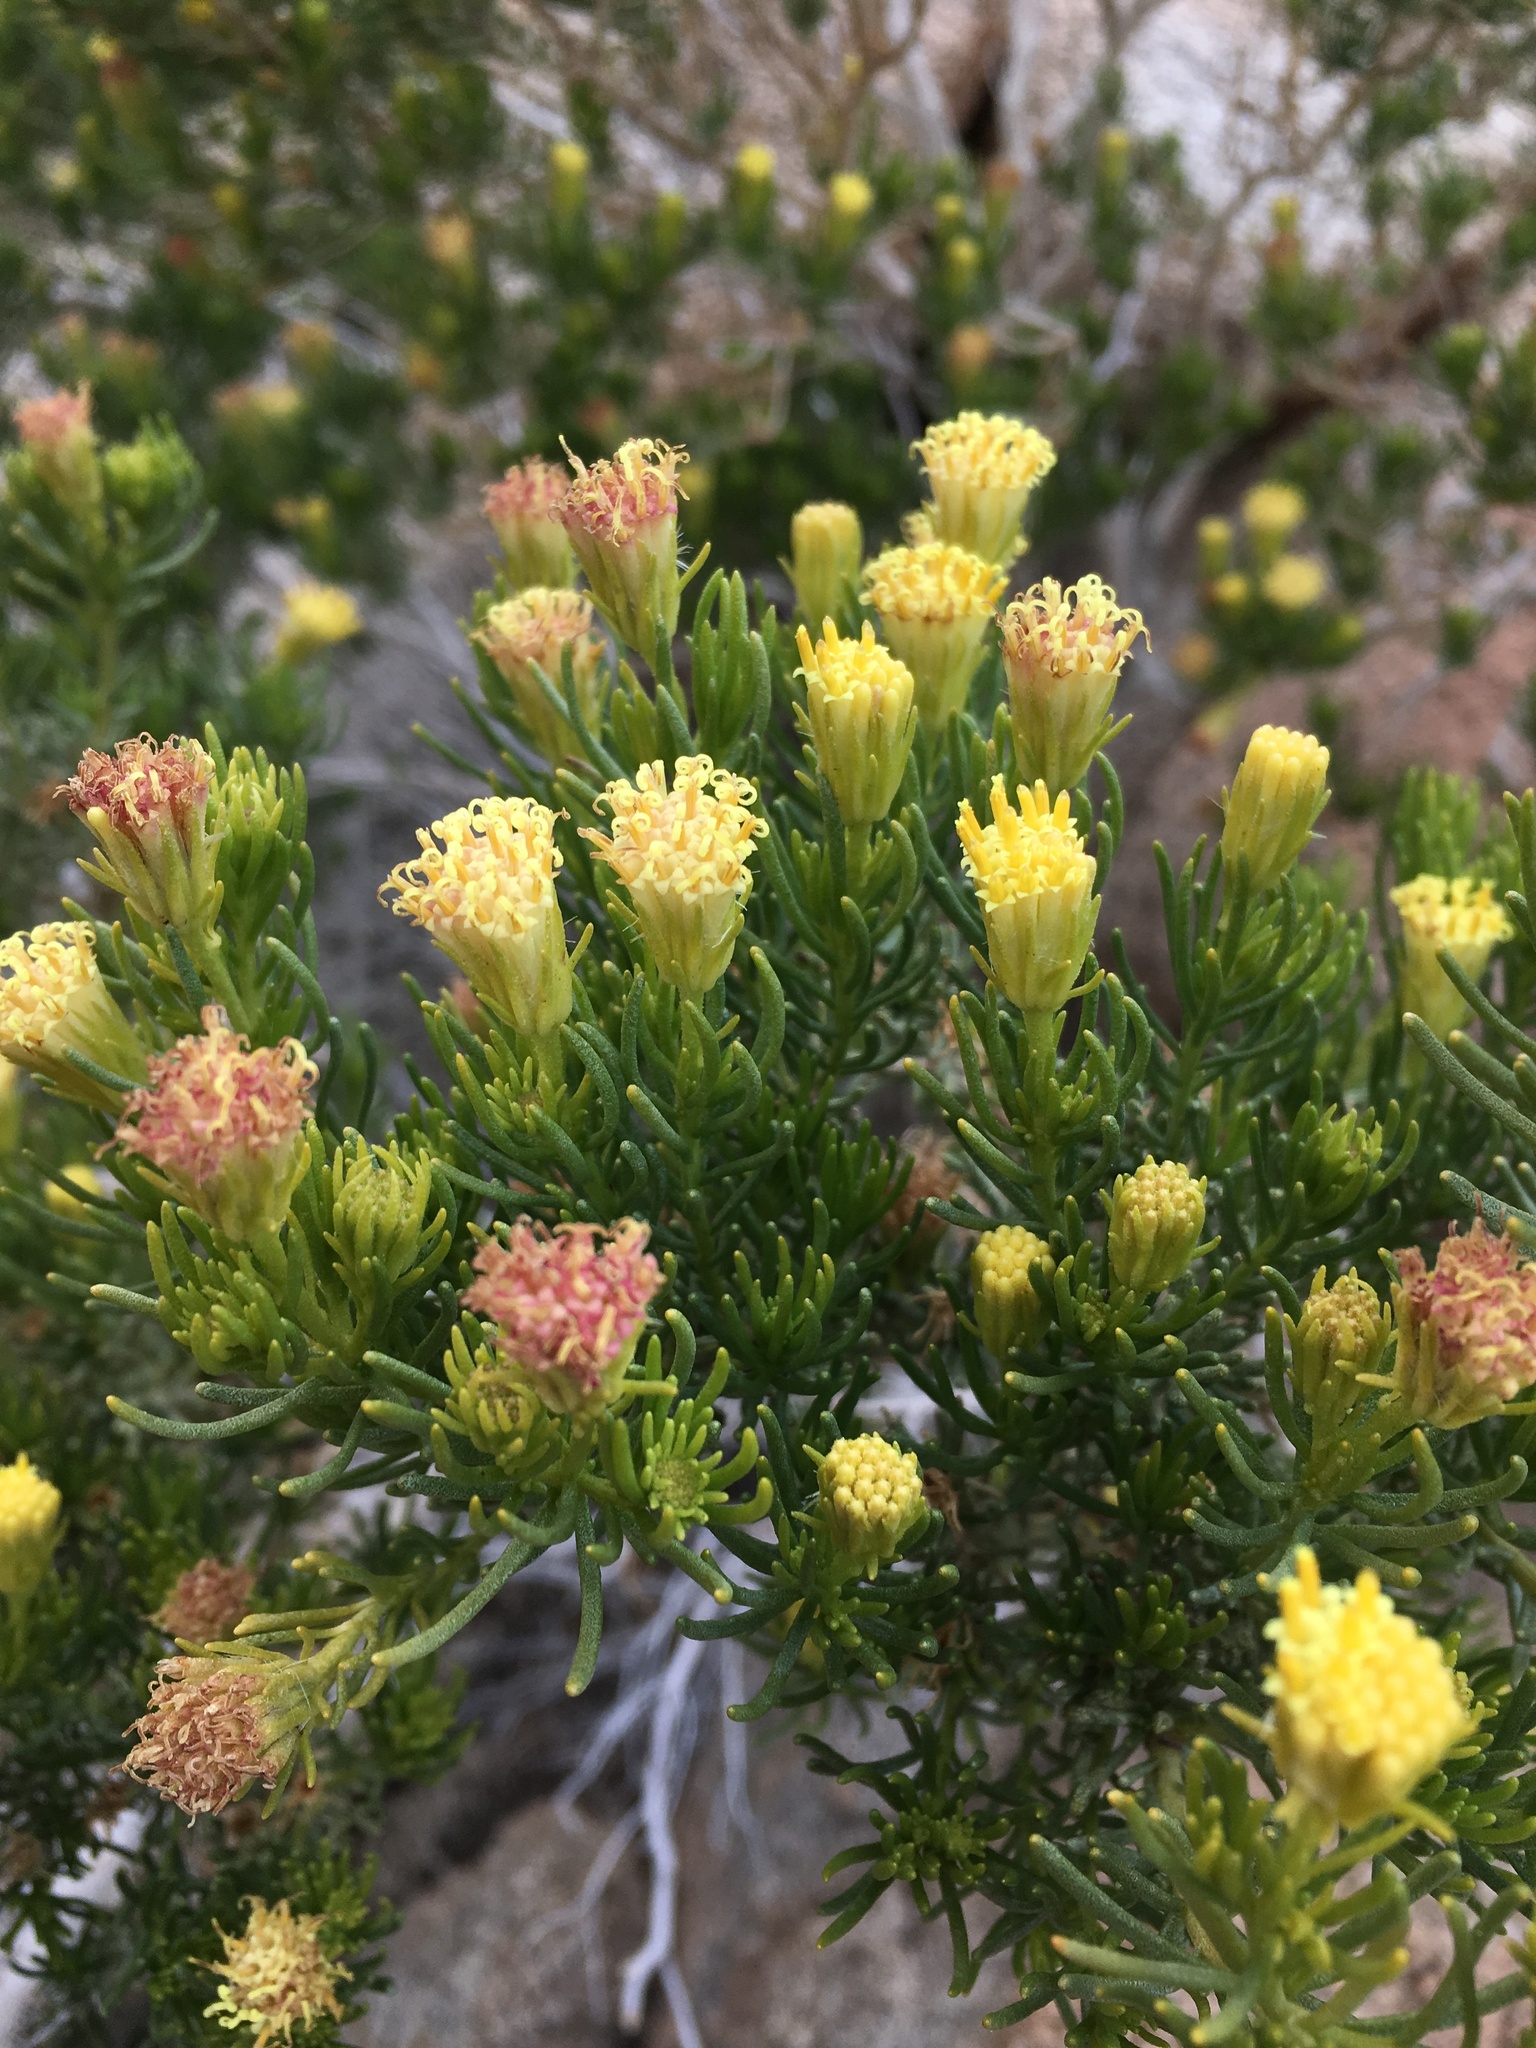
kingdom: Plantae
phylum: Tracheophyta
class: Magnoliopsida
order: Asterales
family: Asteraceae
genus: Peucephyllum
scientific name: Peucephyllum schottii
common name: Pygmy-cedar
